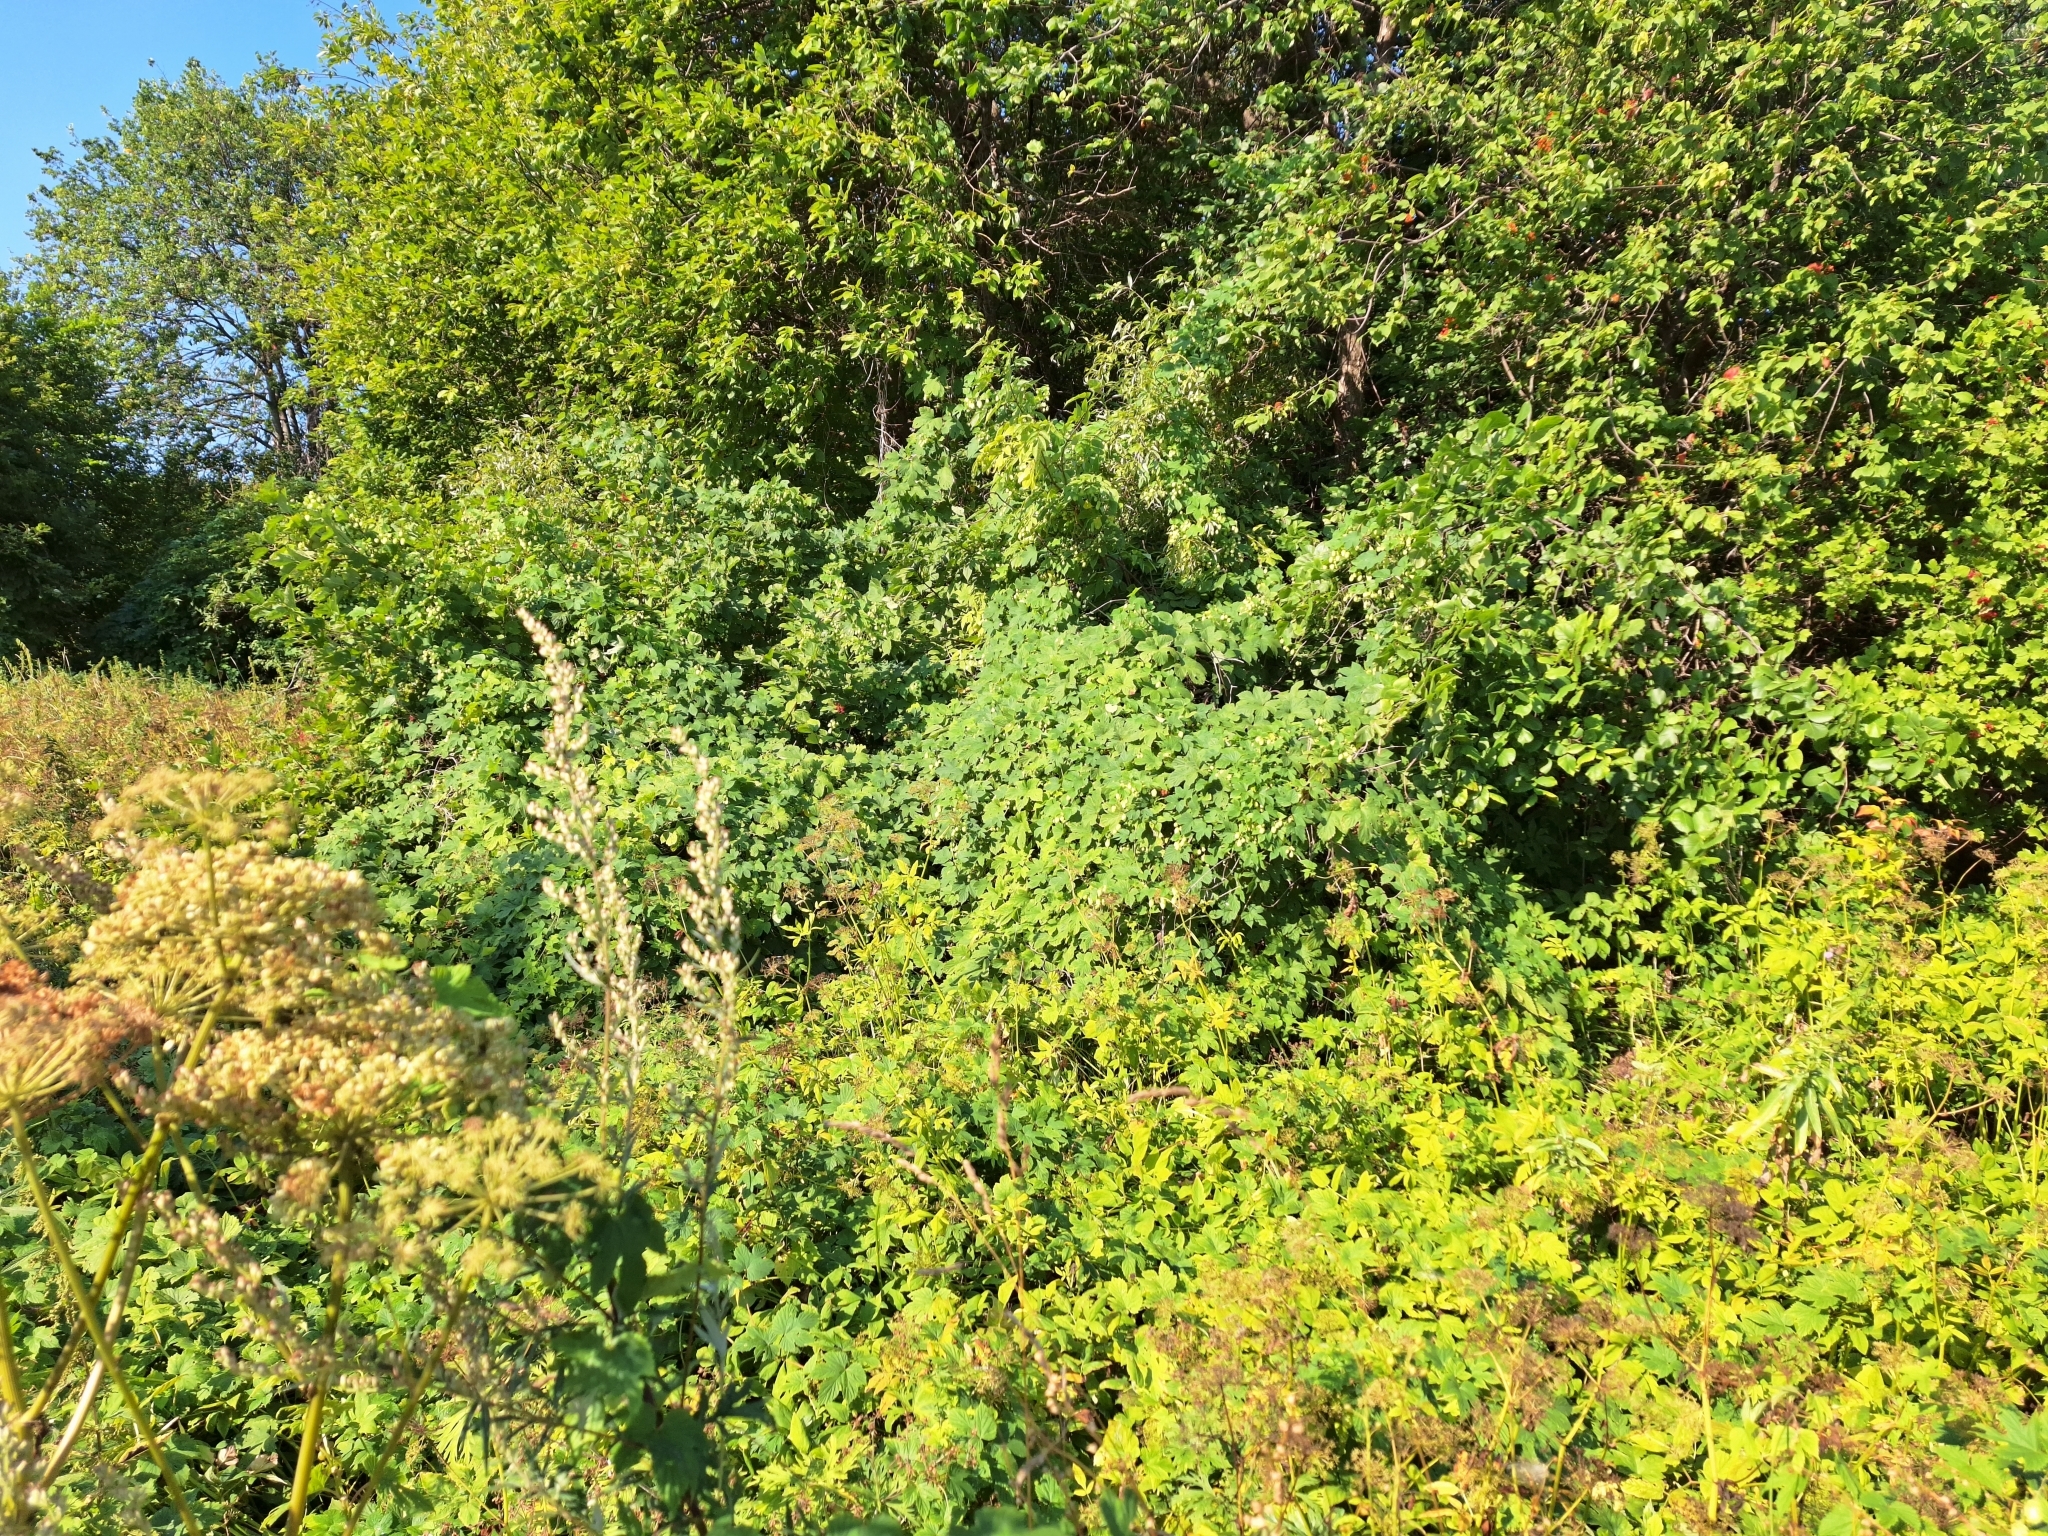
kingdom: Plantae
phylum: Tracheophyta
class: Magnoliopsida
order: Rosales
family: Cannabaceae
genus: Humulus
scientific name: Humulus lupulus
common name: Hop
